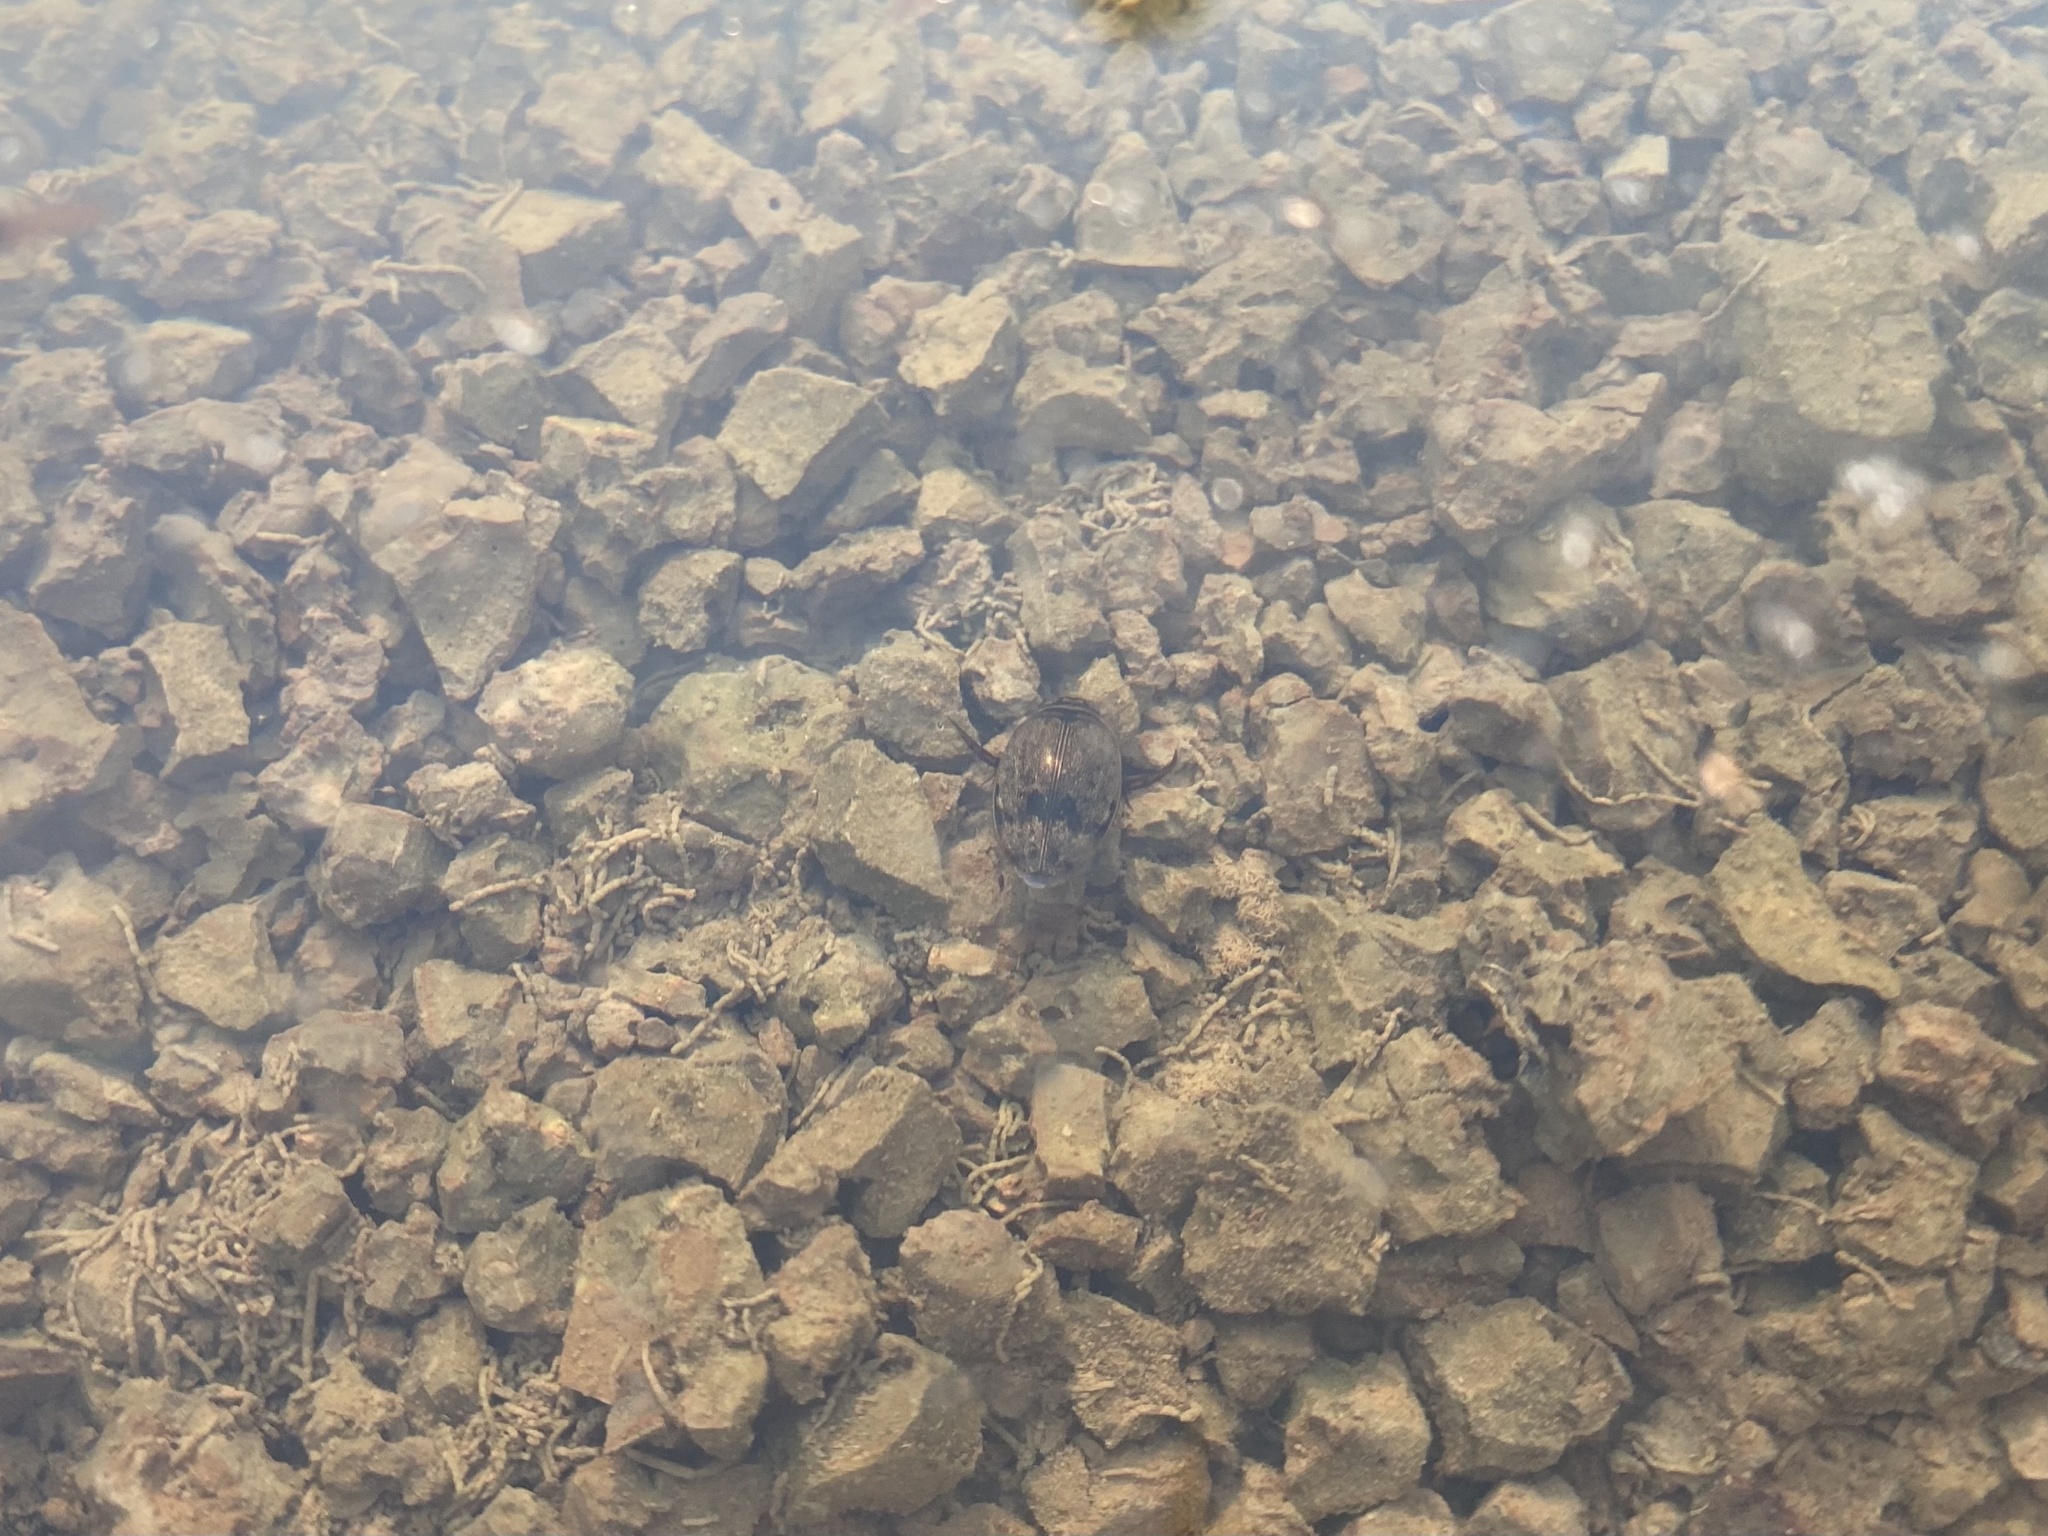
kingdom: Animalia
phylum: Arthropoda
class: Insecta
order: Coleoptera
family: Dytiscidae
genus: Thermonectus
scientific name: Thermonectus nigrofasciatus
